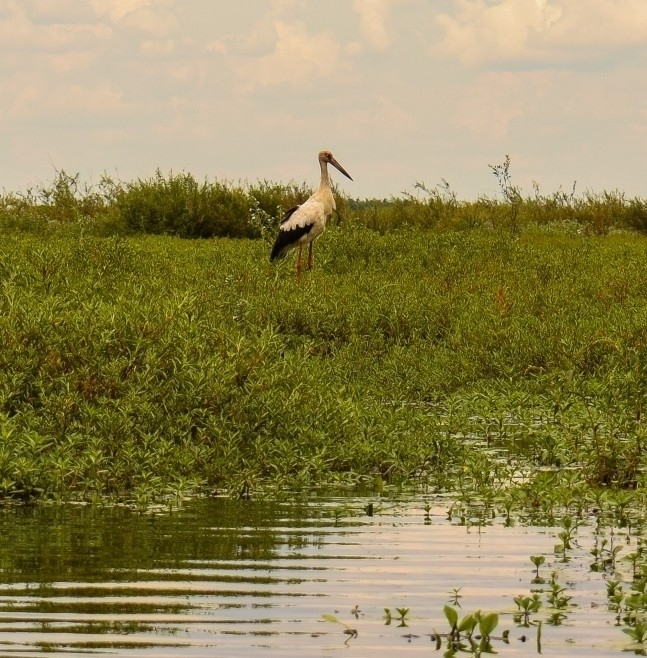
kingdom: Animalia
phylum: Chordata
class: Aves
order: Ciconiiformes
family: Ciconiidae
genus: Ciconia
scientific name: Ciconia maguari
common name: Maguari stork
